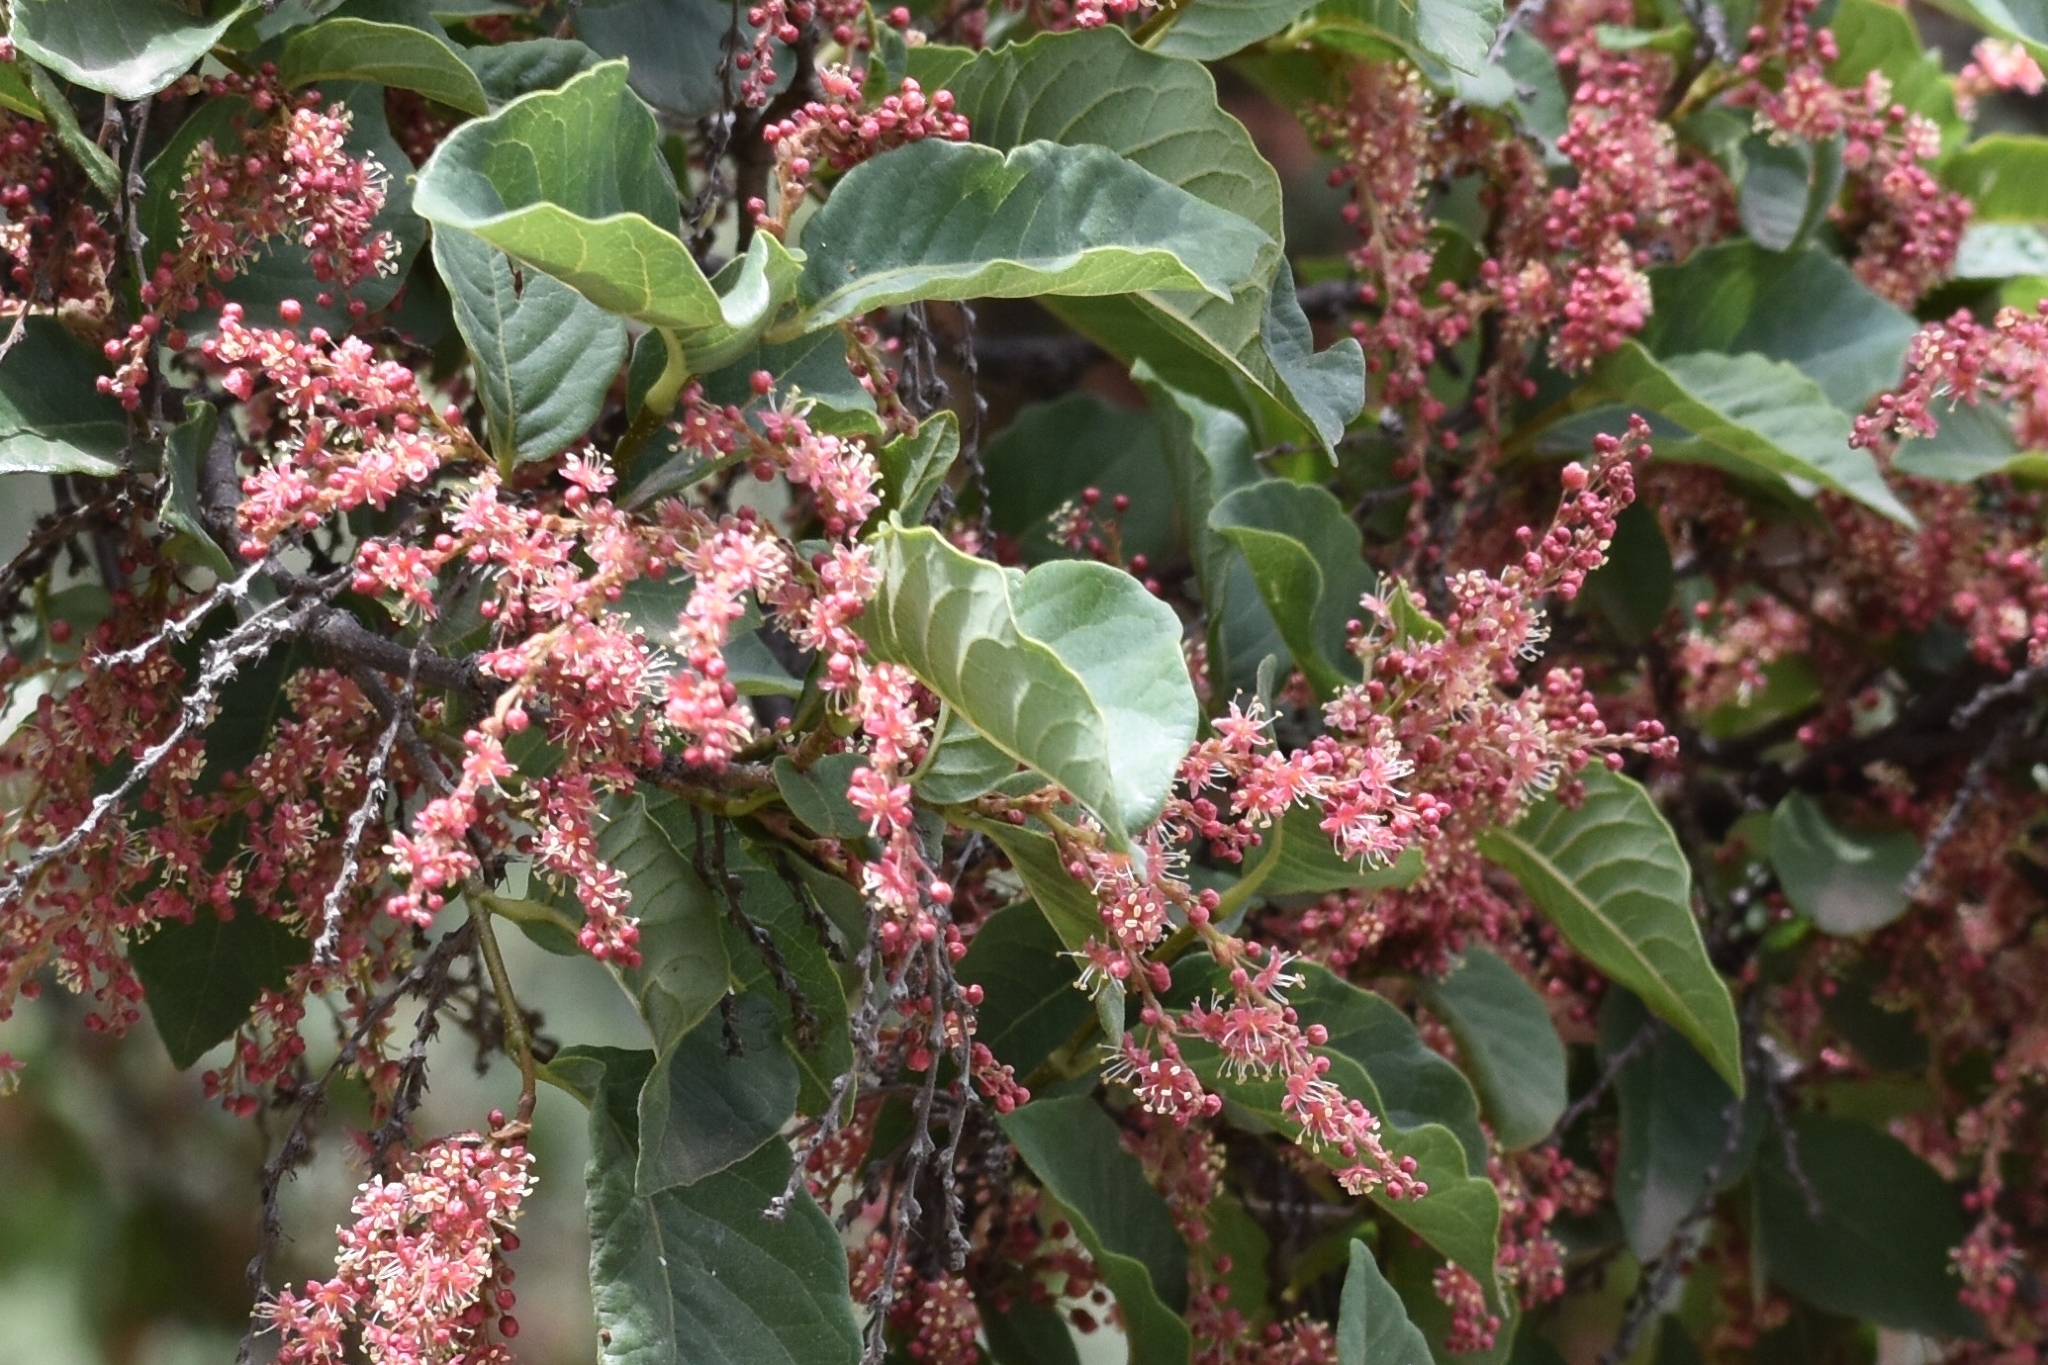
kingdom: Plantae
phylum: Tracheophyta
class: Magnoliopsida
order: Caryophyllales
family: Polygonaceae
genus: Ruprechtia
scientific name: Ruprechtia apetala
